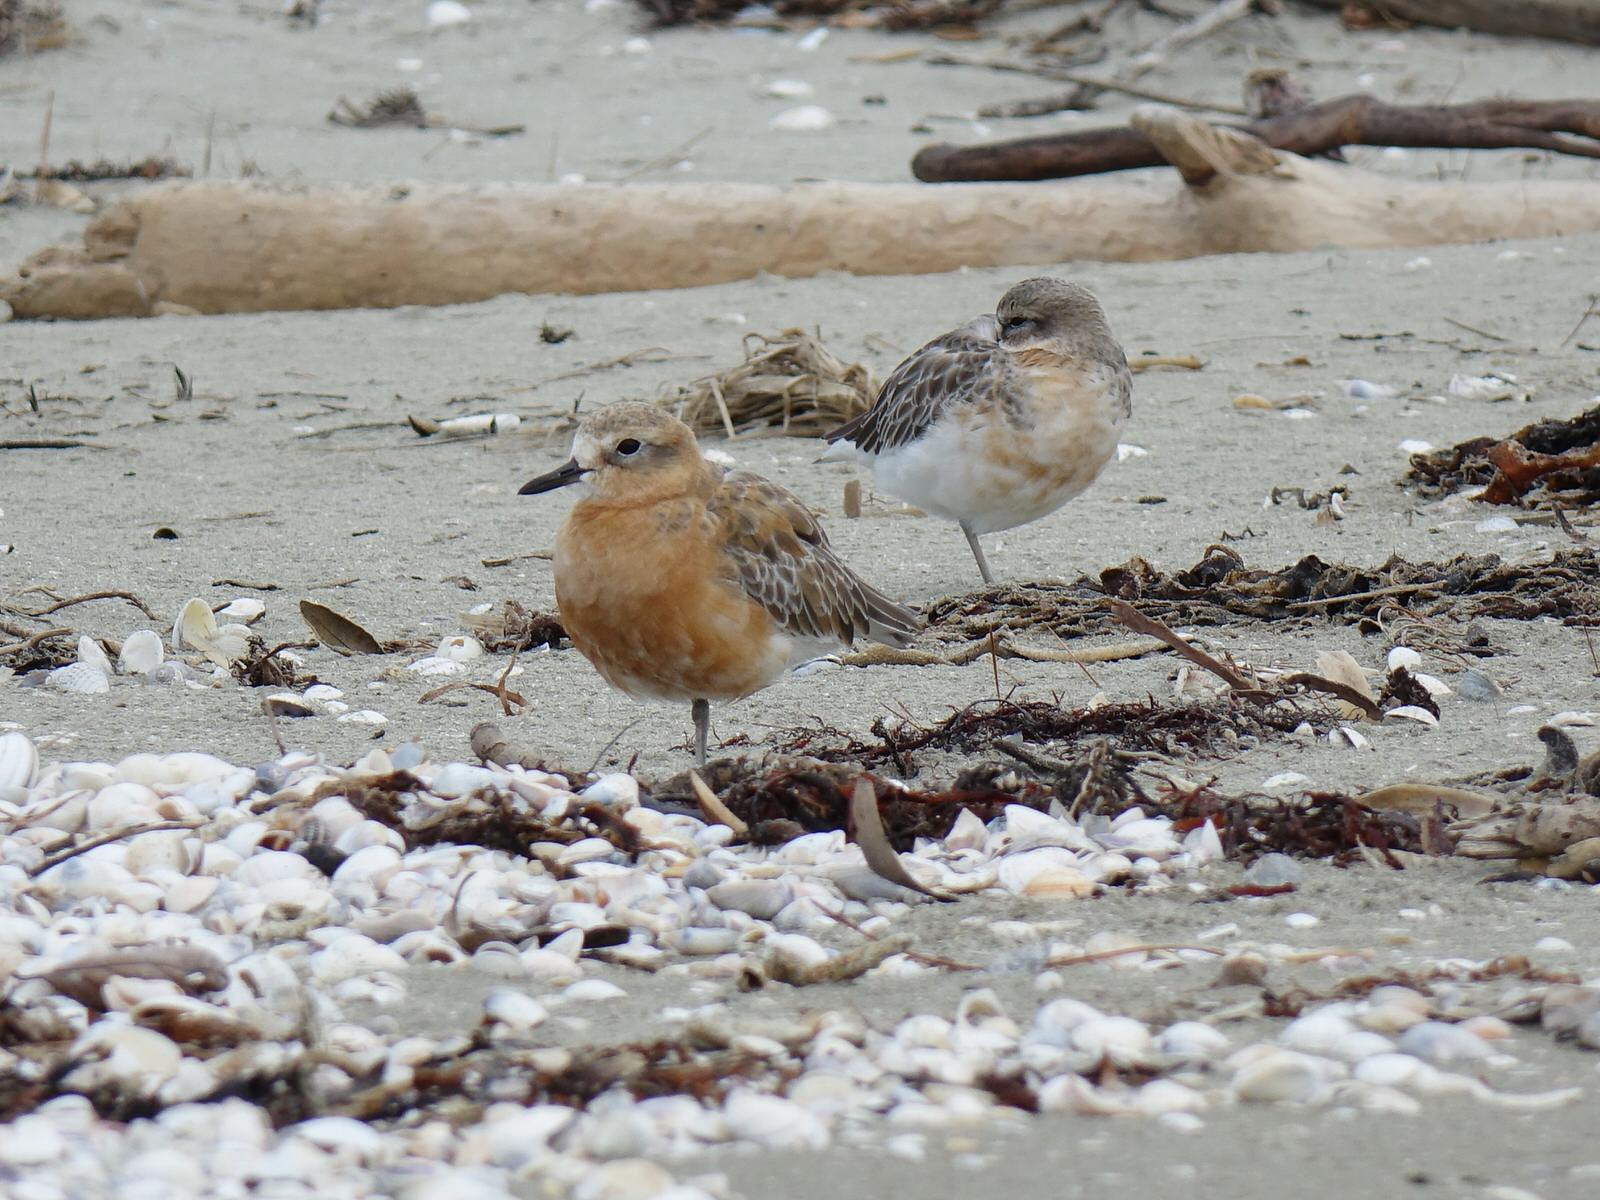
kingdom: Animalia
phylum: Chordata
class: Aves
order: Charadriiformes
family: Charadriidae
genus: Anarhynchus
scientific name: Anarhynchus
